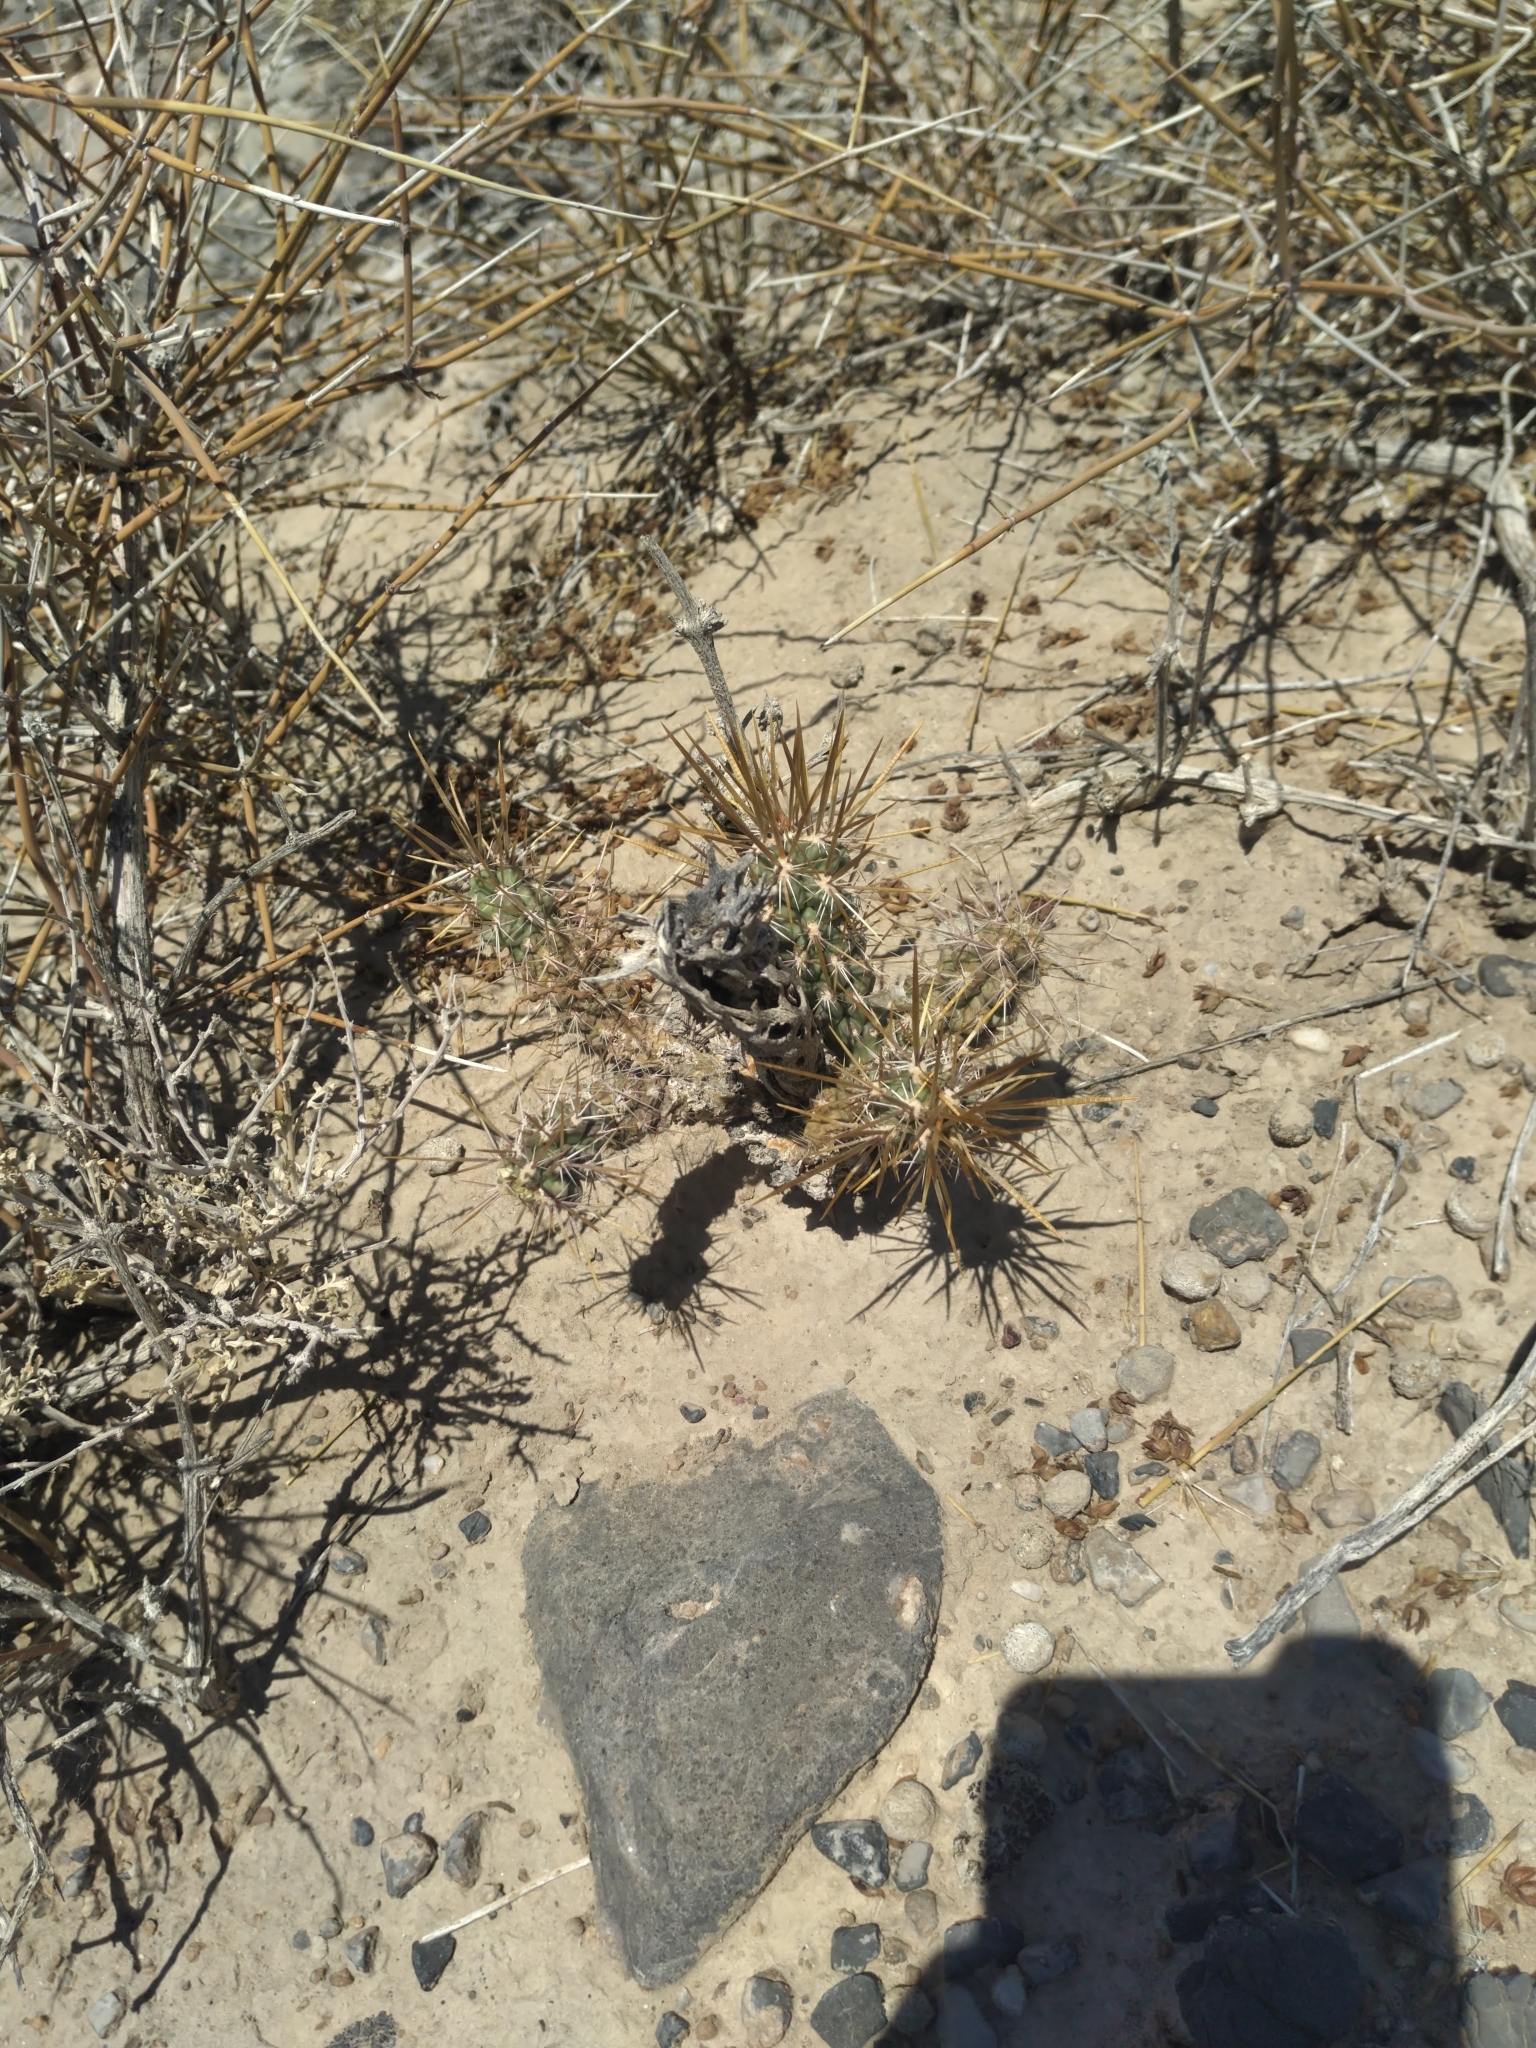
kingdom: Plantae
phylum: Tracheophyta
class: Magnoliopsida
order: Caryophyllales
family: Cactaceae
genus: Cylindropuntia
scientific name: Cylindropuntia echinocarpa
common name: Ground cholla
